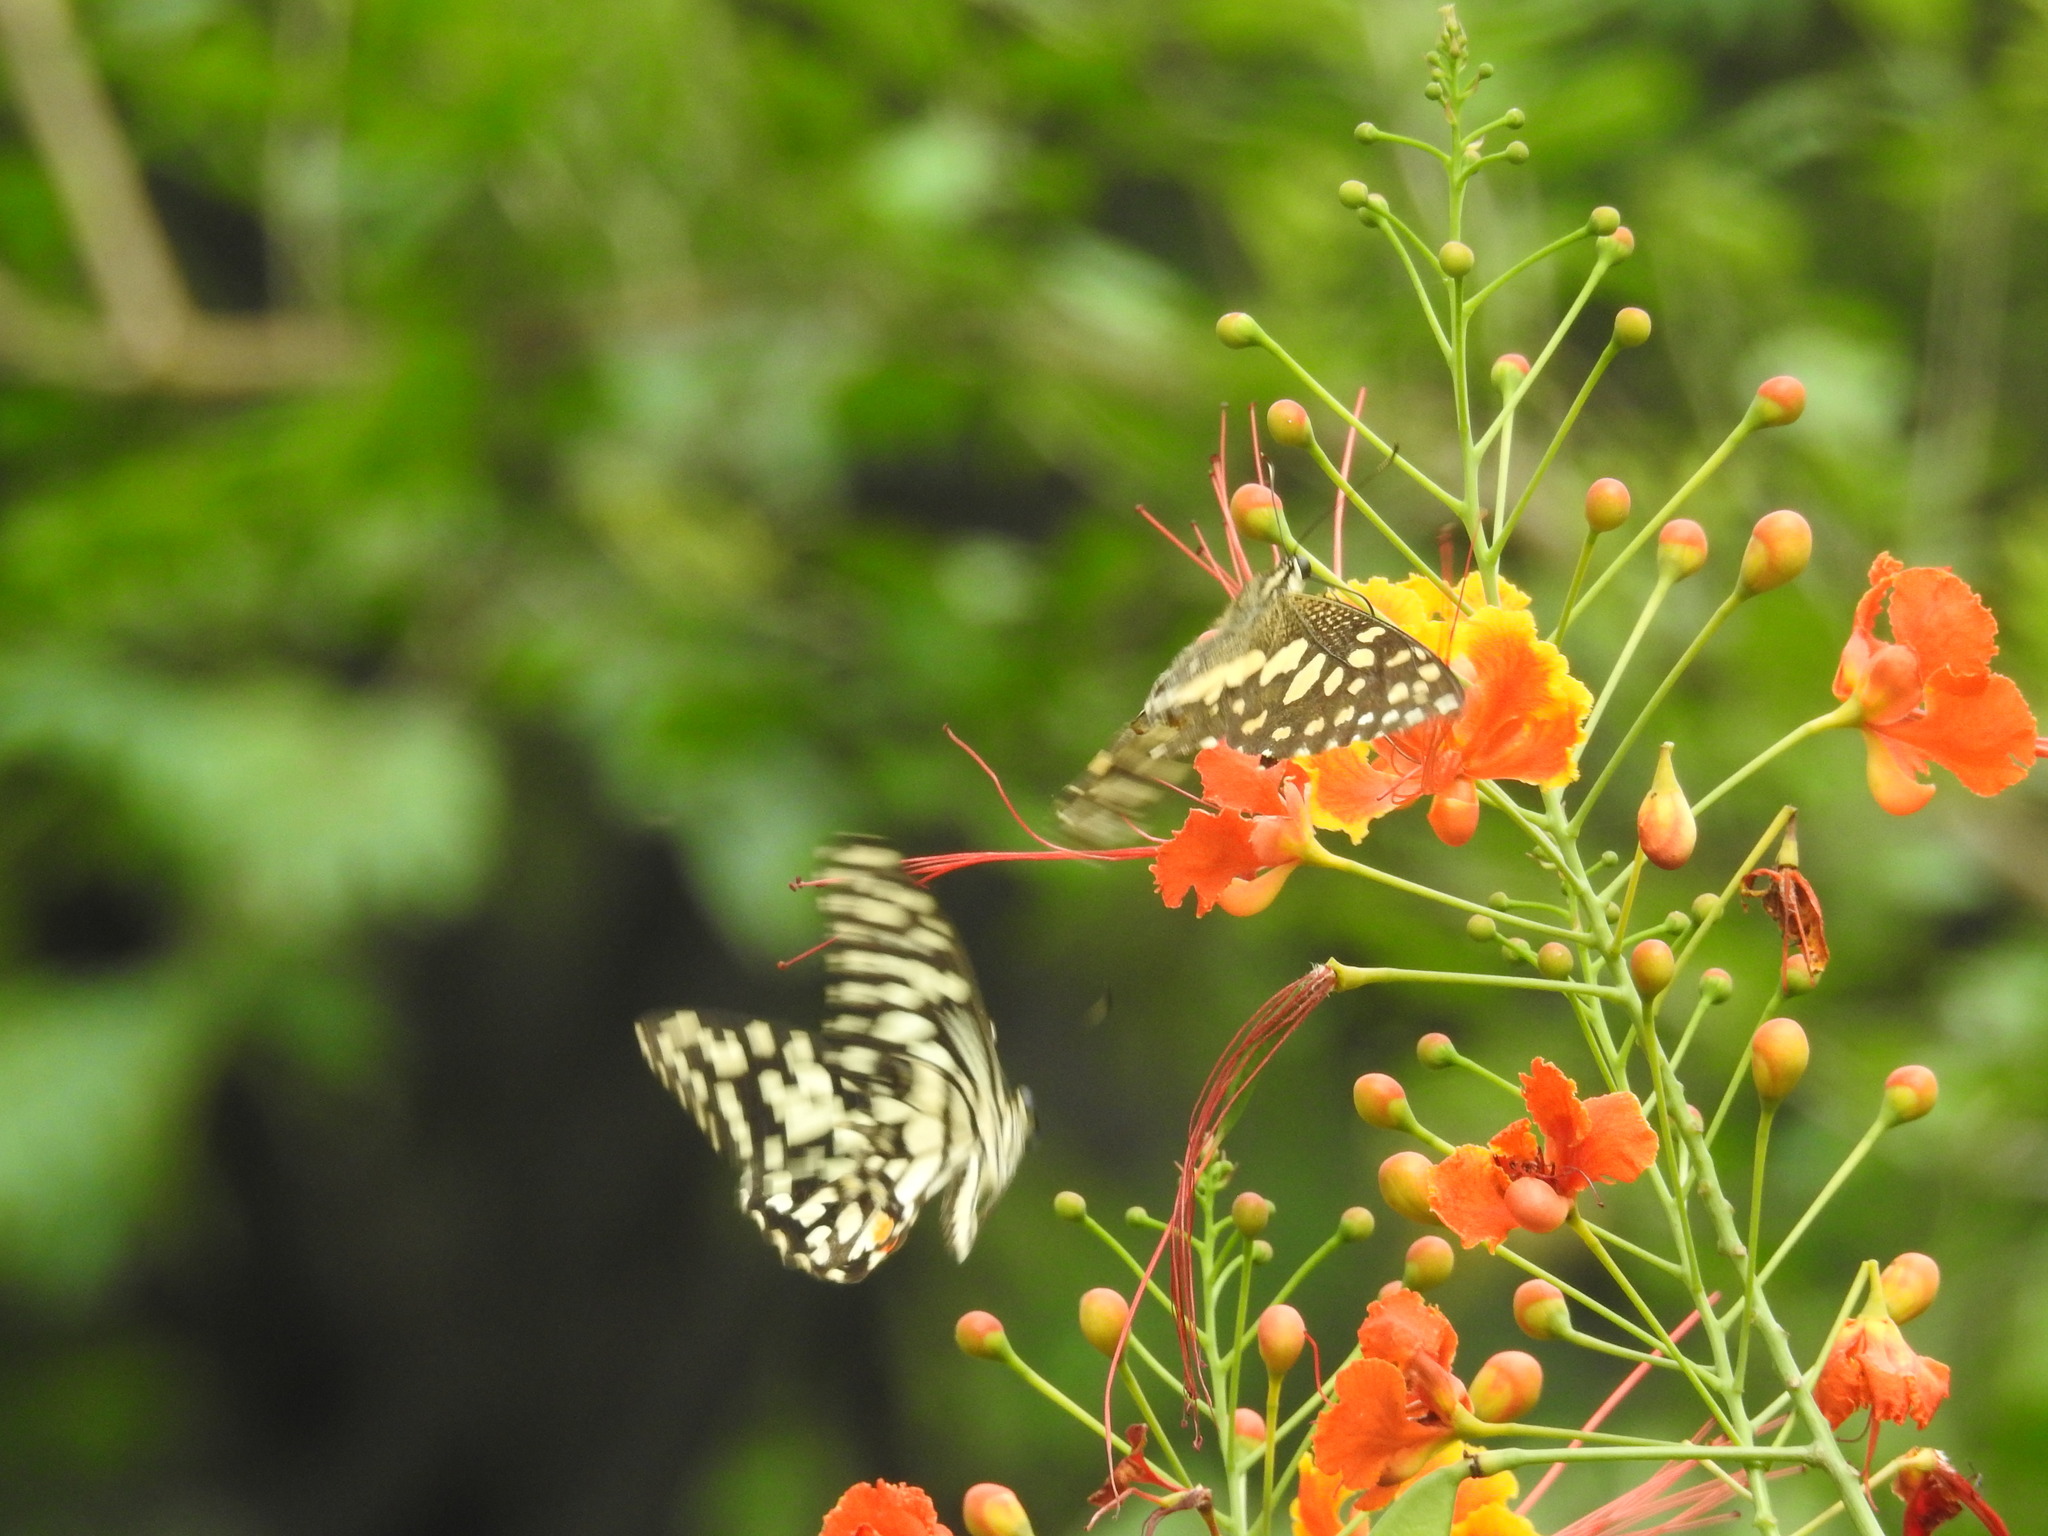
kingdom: Animalia
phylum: Arthropoda
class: Insecta
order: Lepidoptera
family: Papilionidae
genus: Papilio
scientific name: Papilio demoleus
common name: Lime butterfly
